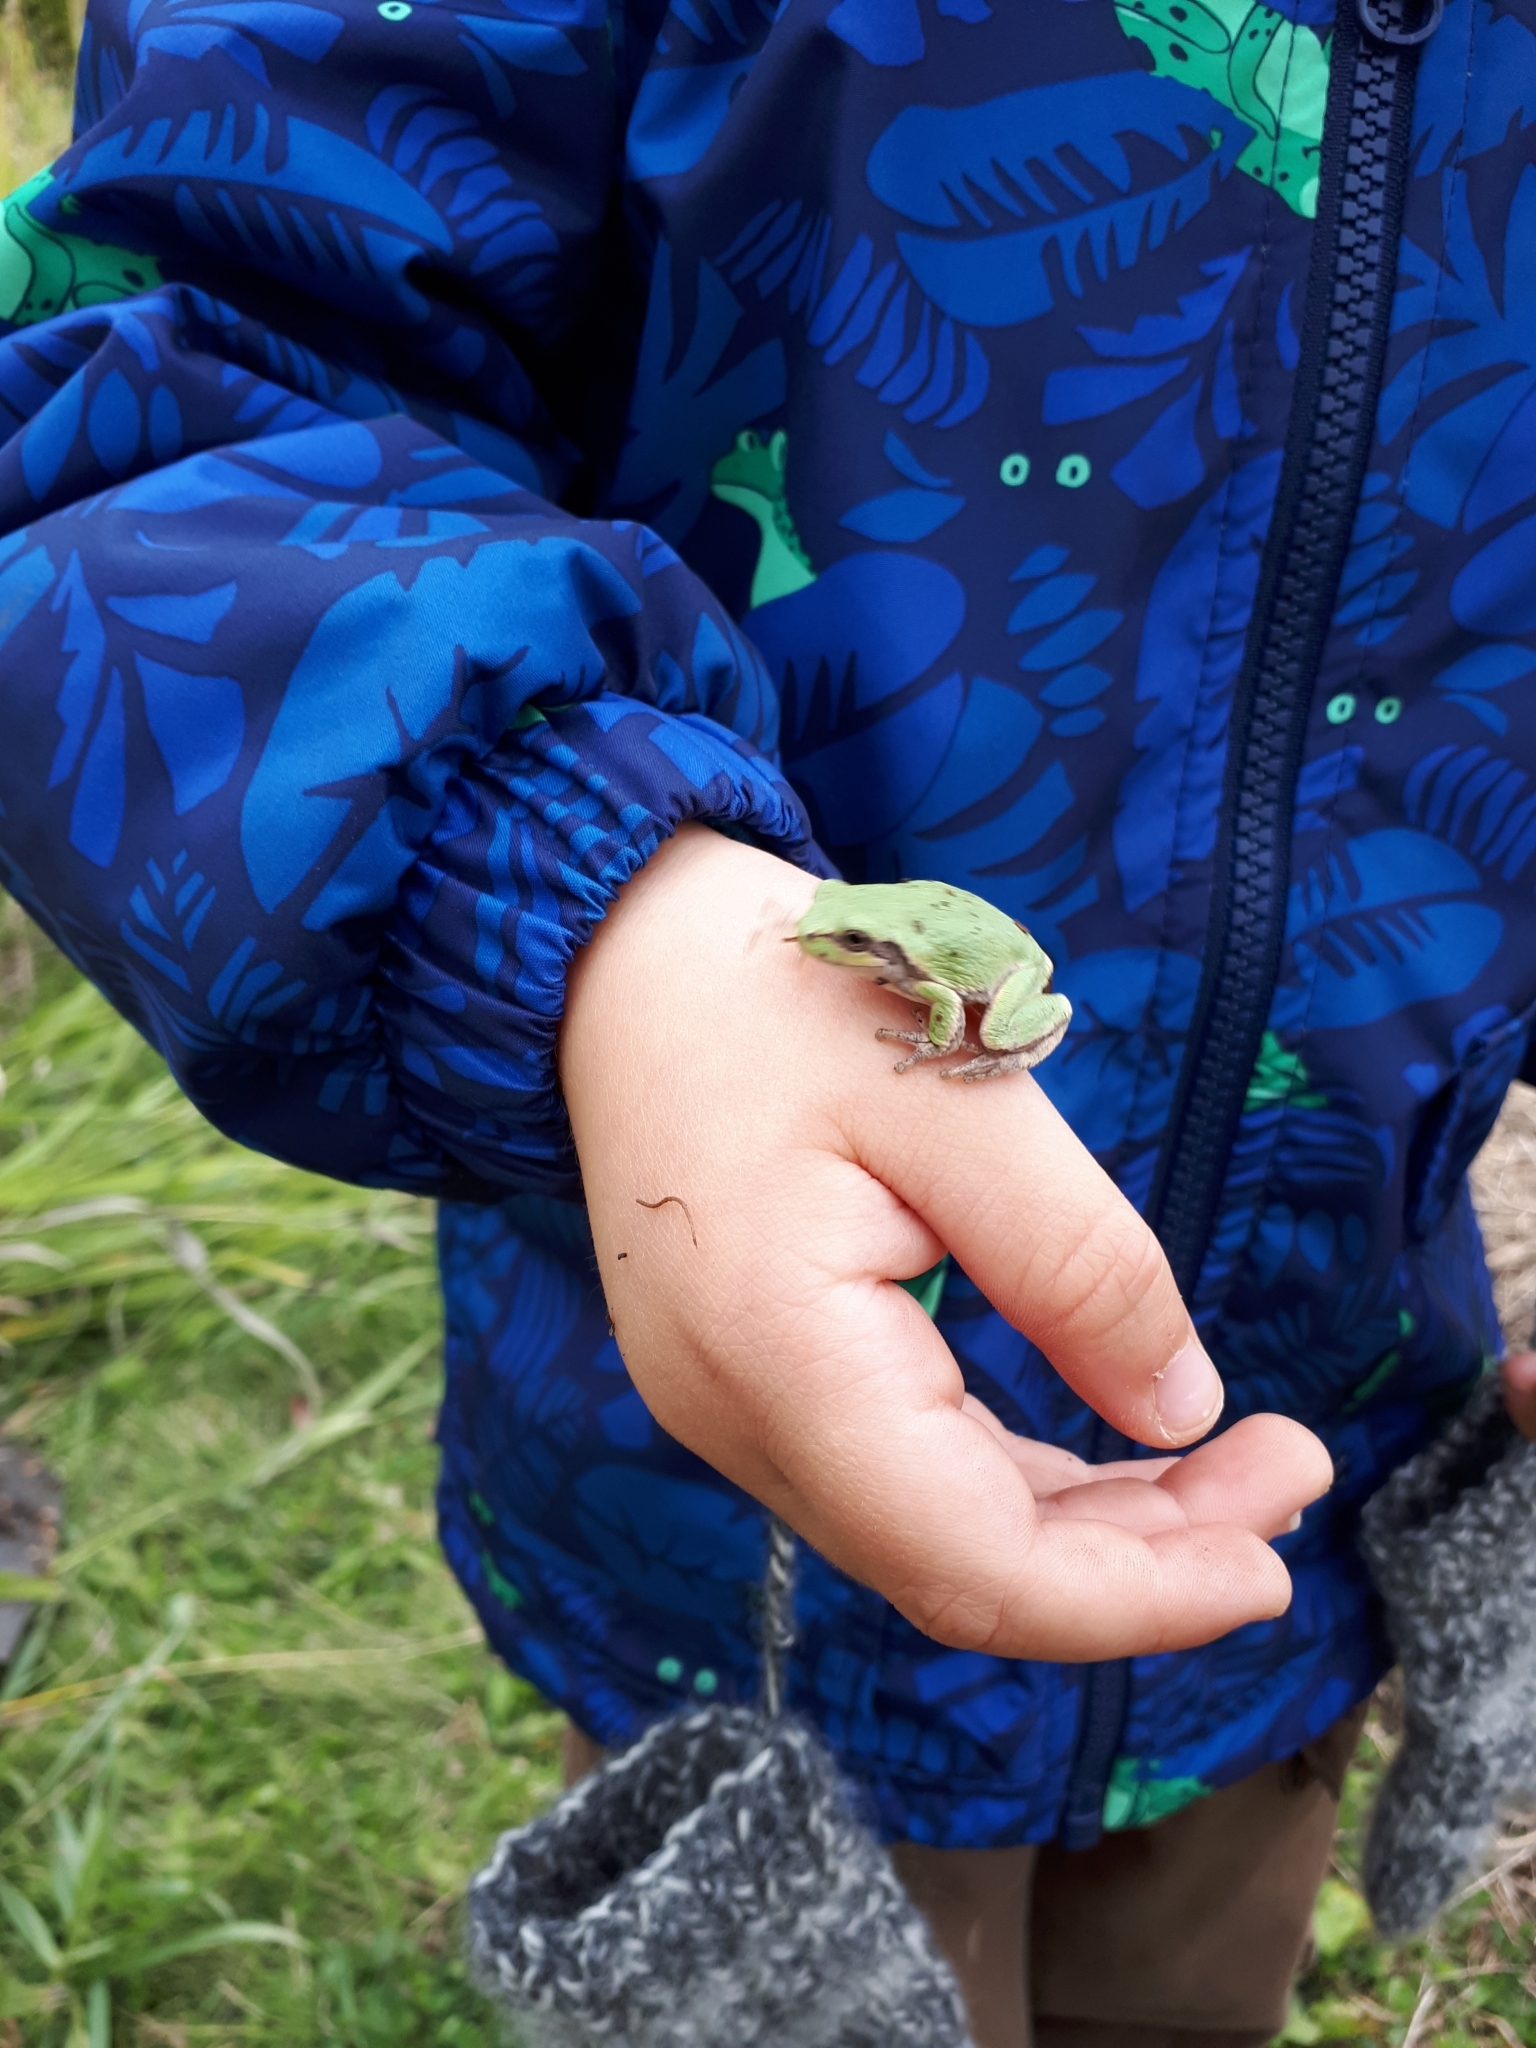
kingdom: Animalia
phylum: Chordata
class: Amphibia
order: Anura
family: Hylidae
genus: Dryophytes
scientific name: Dryophytes versicolor
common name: Gray treefrog
